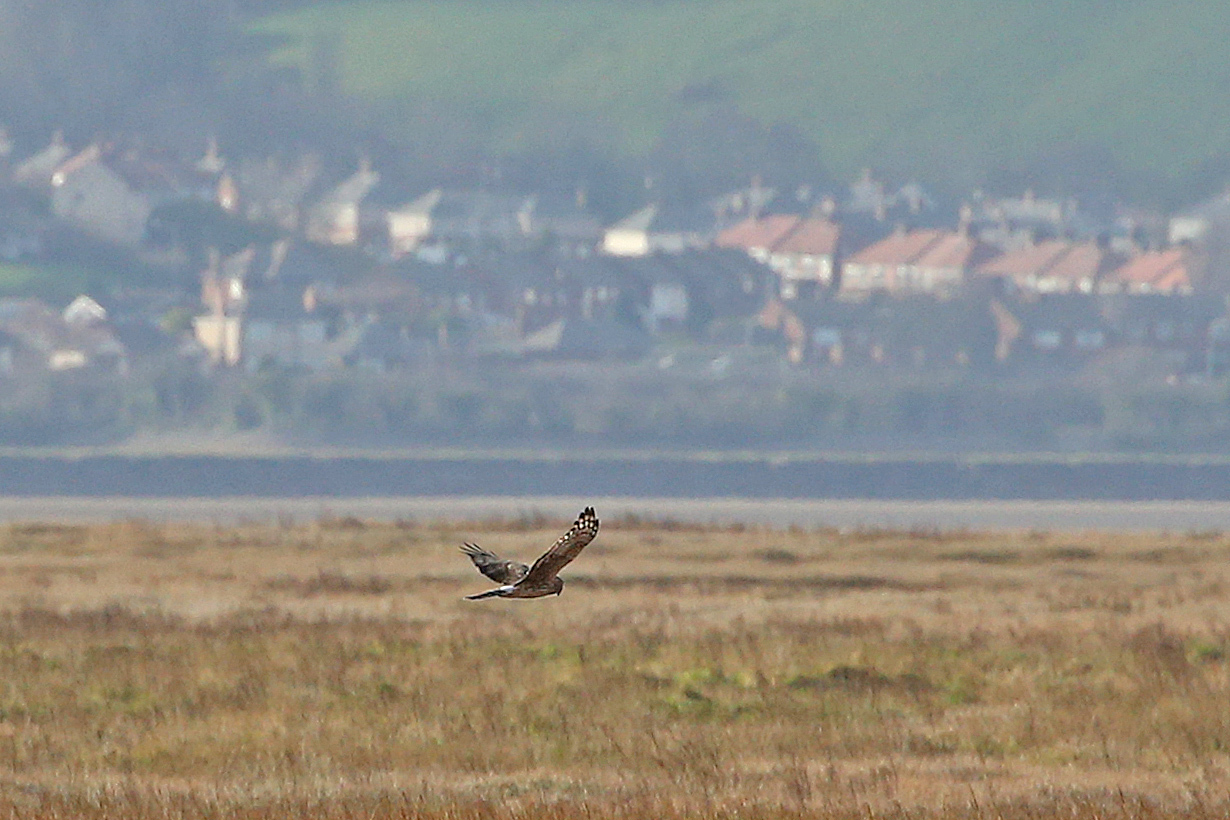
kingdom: Animalia
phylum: Chordata
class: Aves
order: Accipitriformes
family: Accipitridae
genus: Circus
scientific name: Circus cyaneus
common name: Hen harrier
